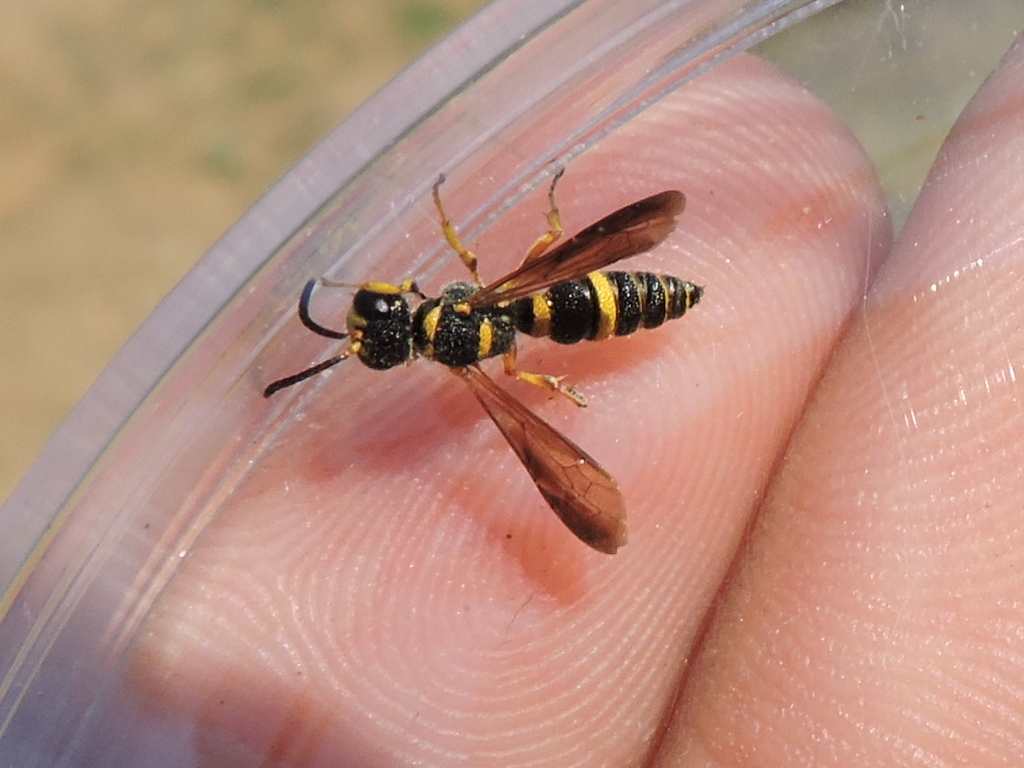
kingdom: Animalia
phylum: Arthropoda
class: Insecta
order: Hymenoptera
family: Crabronidae
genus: Cerceris
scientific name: Cerceris insolita
